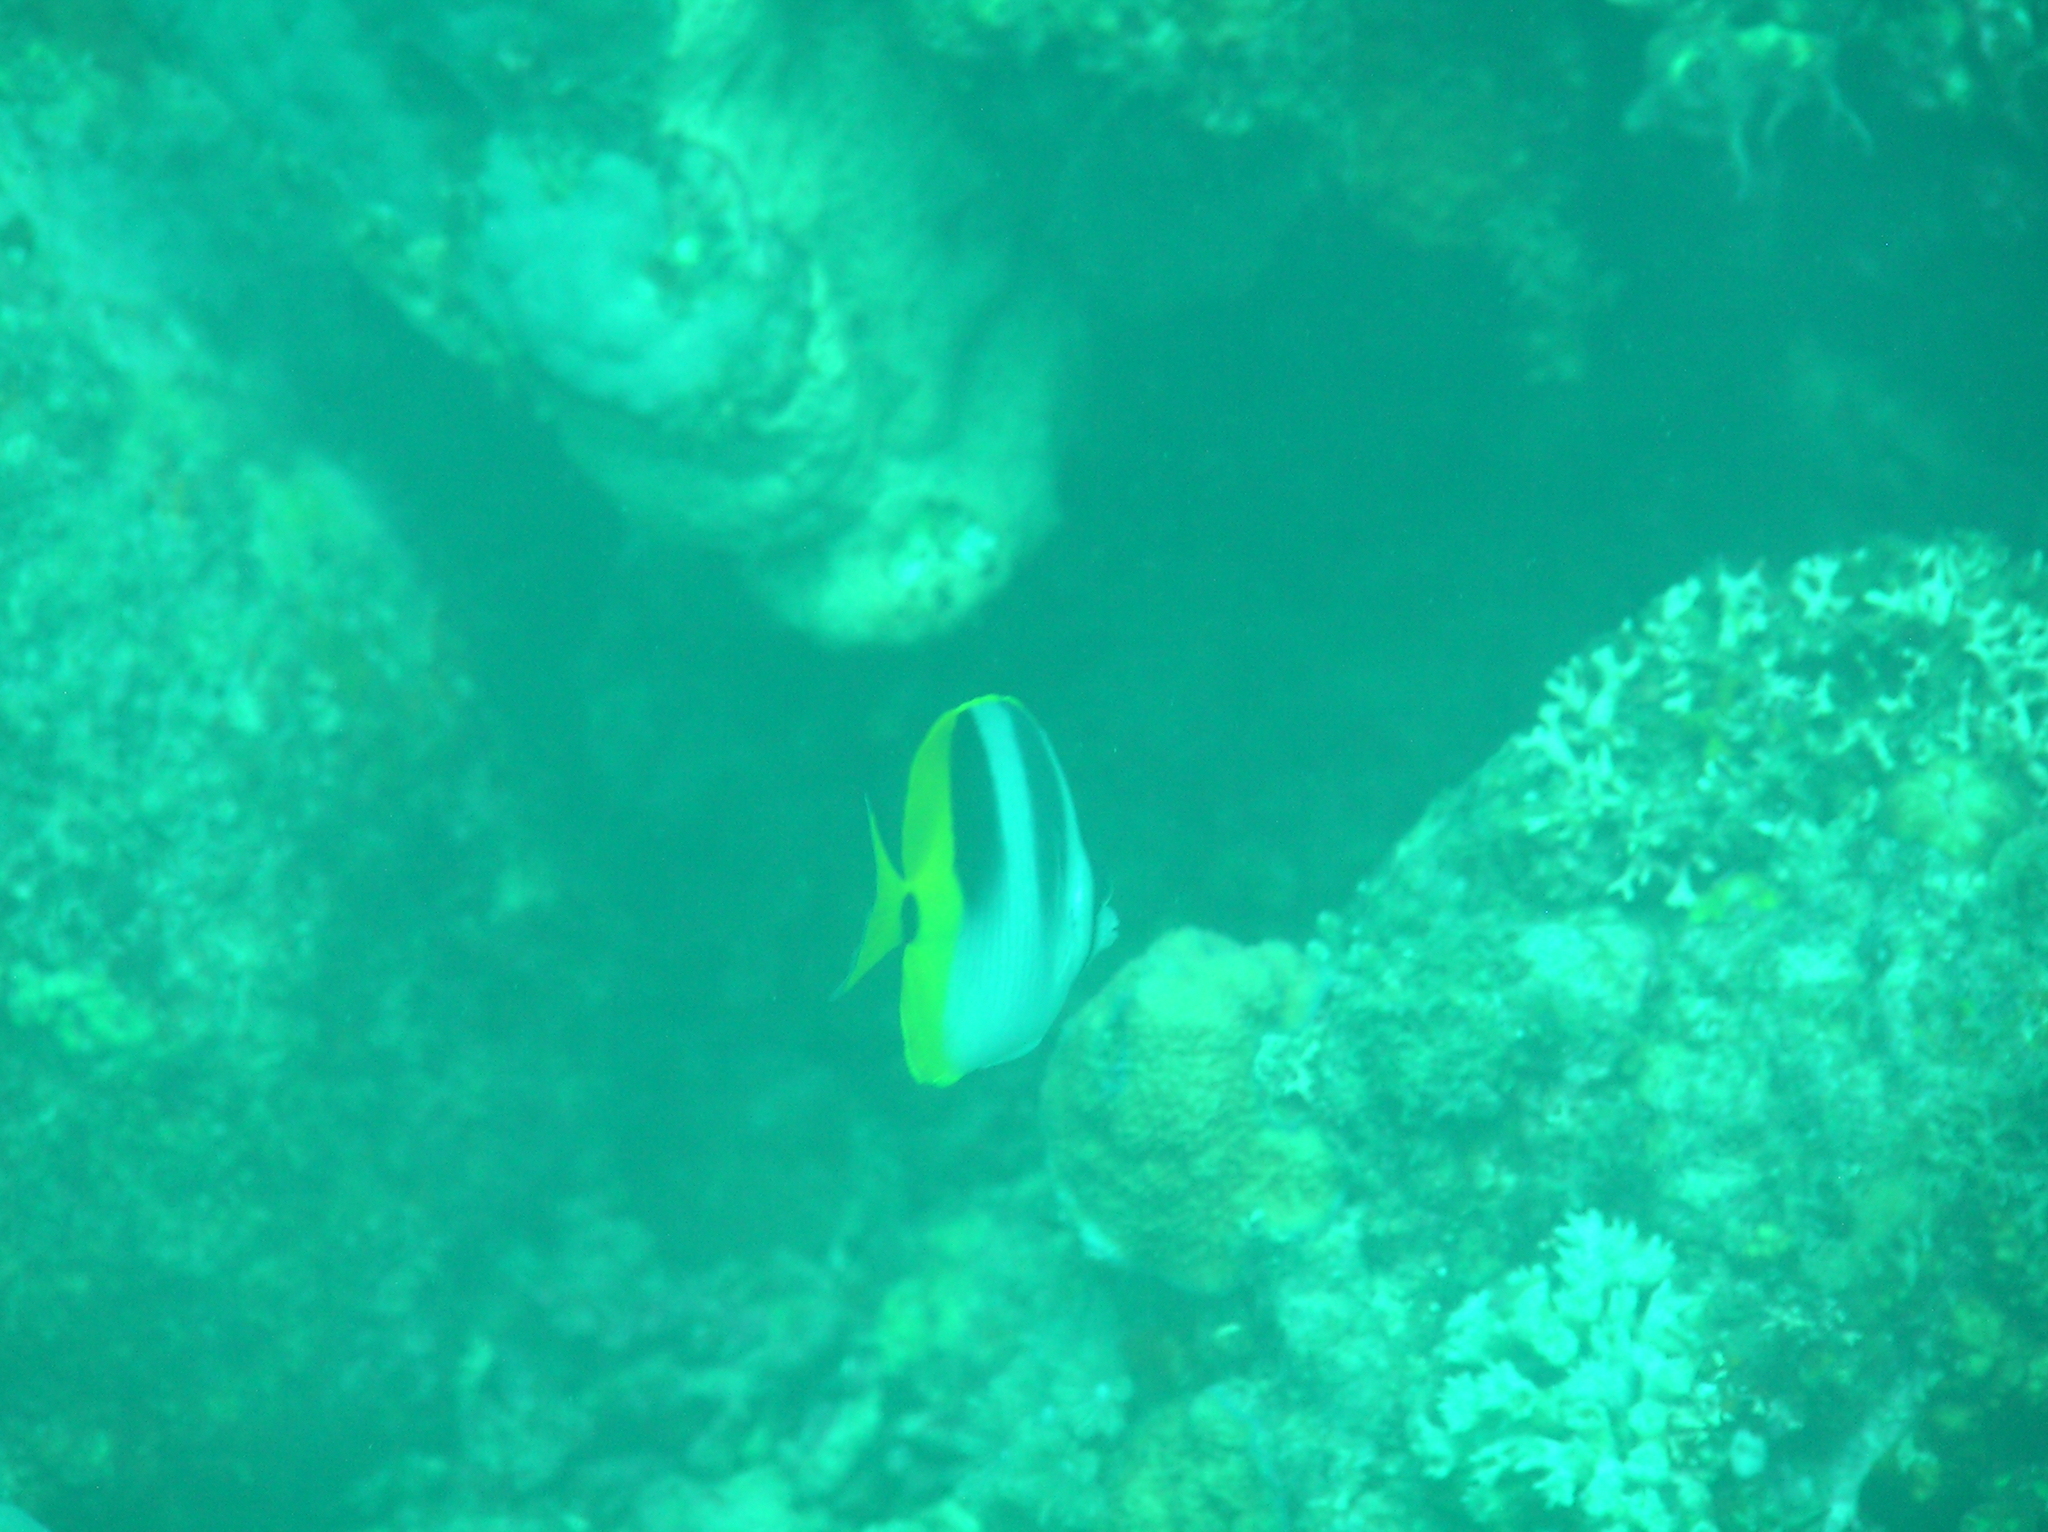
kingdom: Animalia
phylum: Chordata
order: Perciformes
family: Chaetodontidae
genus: Chaetodon
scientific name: Chaetodon ulietensis
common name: Pacific double-saddle butterflyfish
